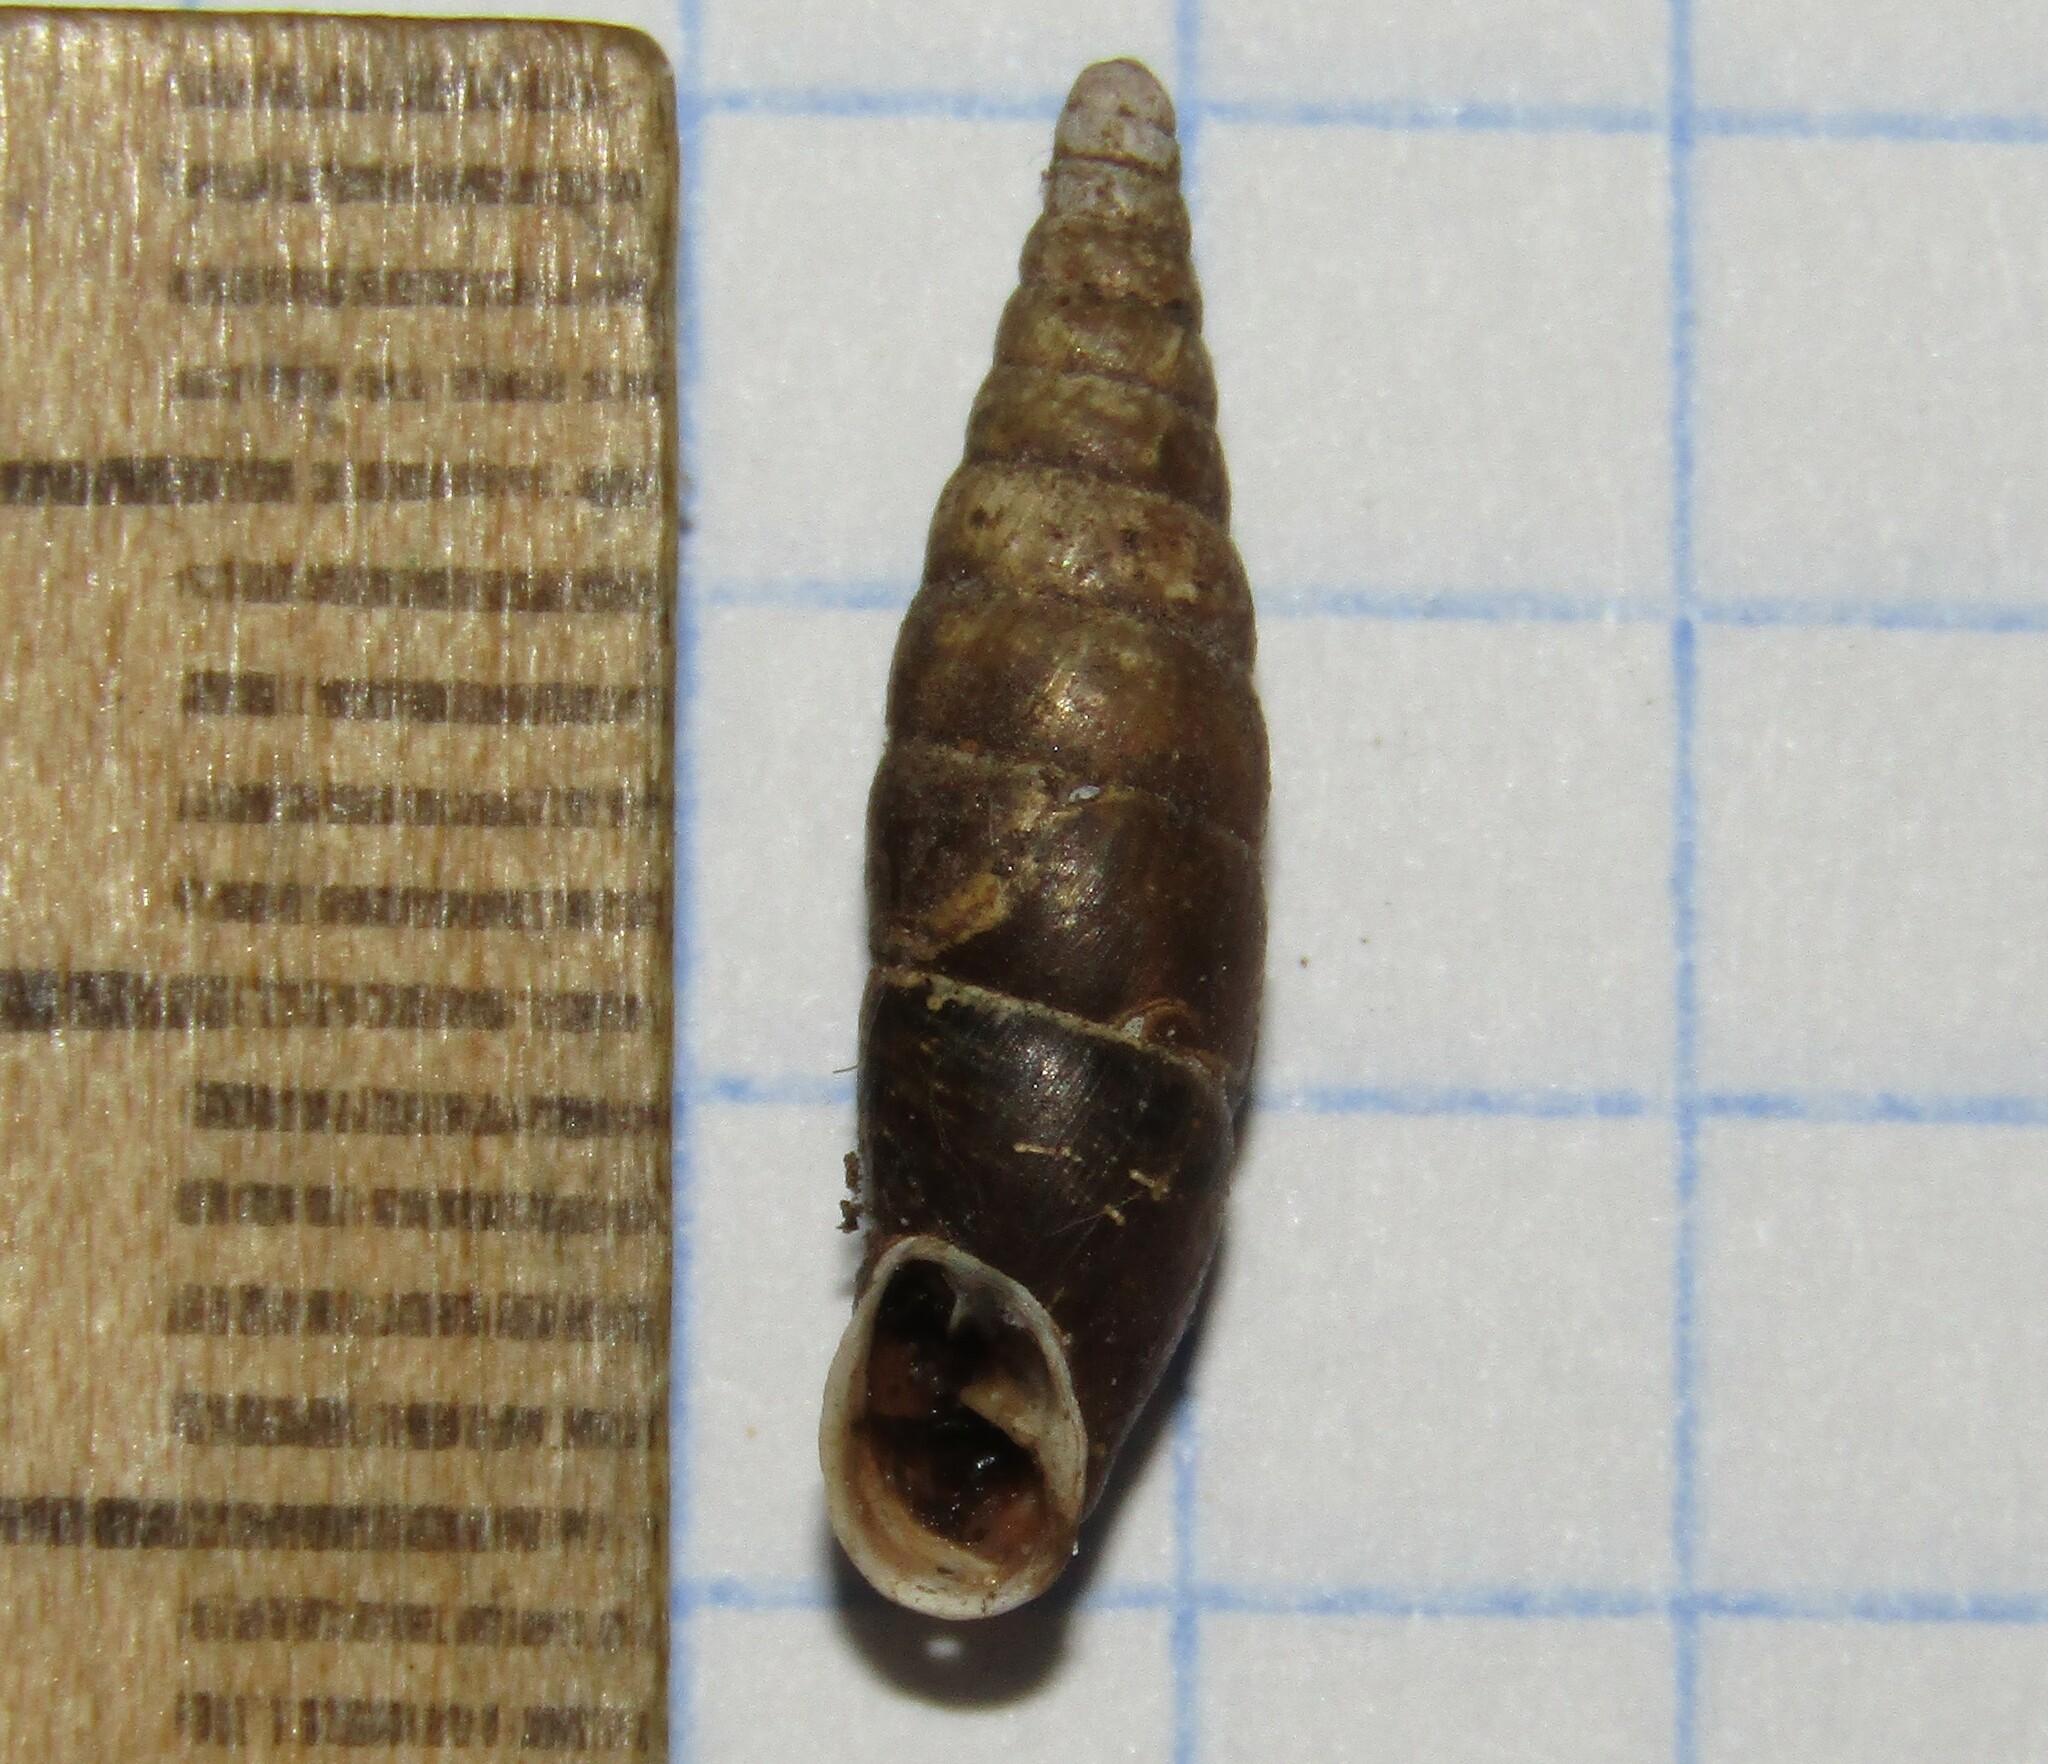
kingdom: Animalia
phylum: Mollusca
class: Gastropoda
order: Stylommatophora
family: Clausiliidae
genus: Cochlodina
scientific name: Cochlodina laminata
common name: Plaited door snail
